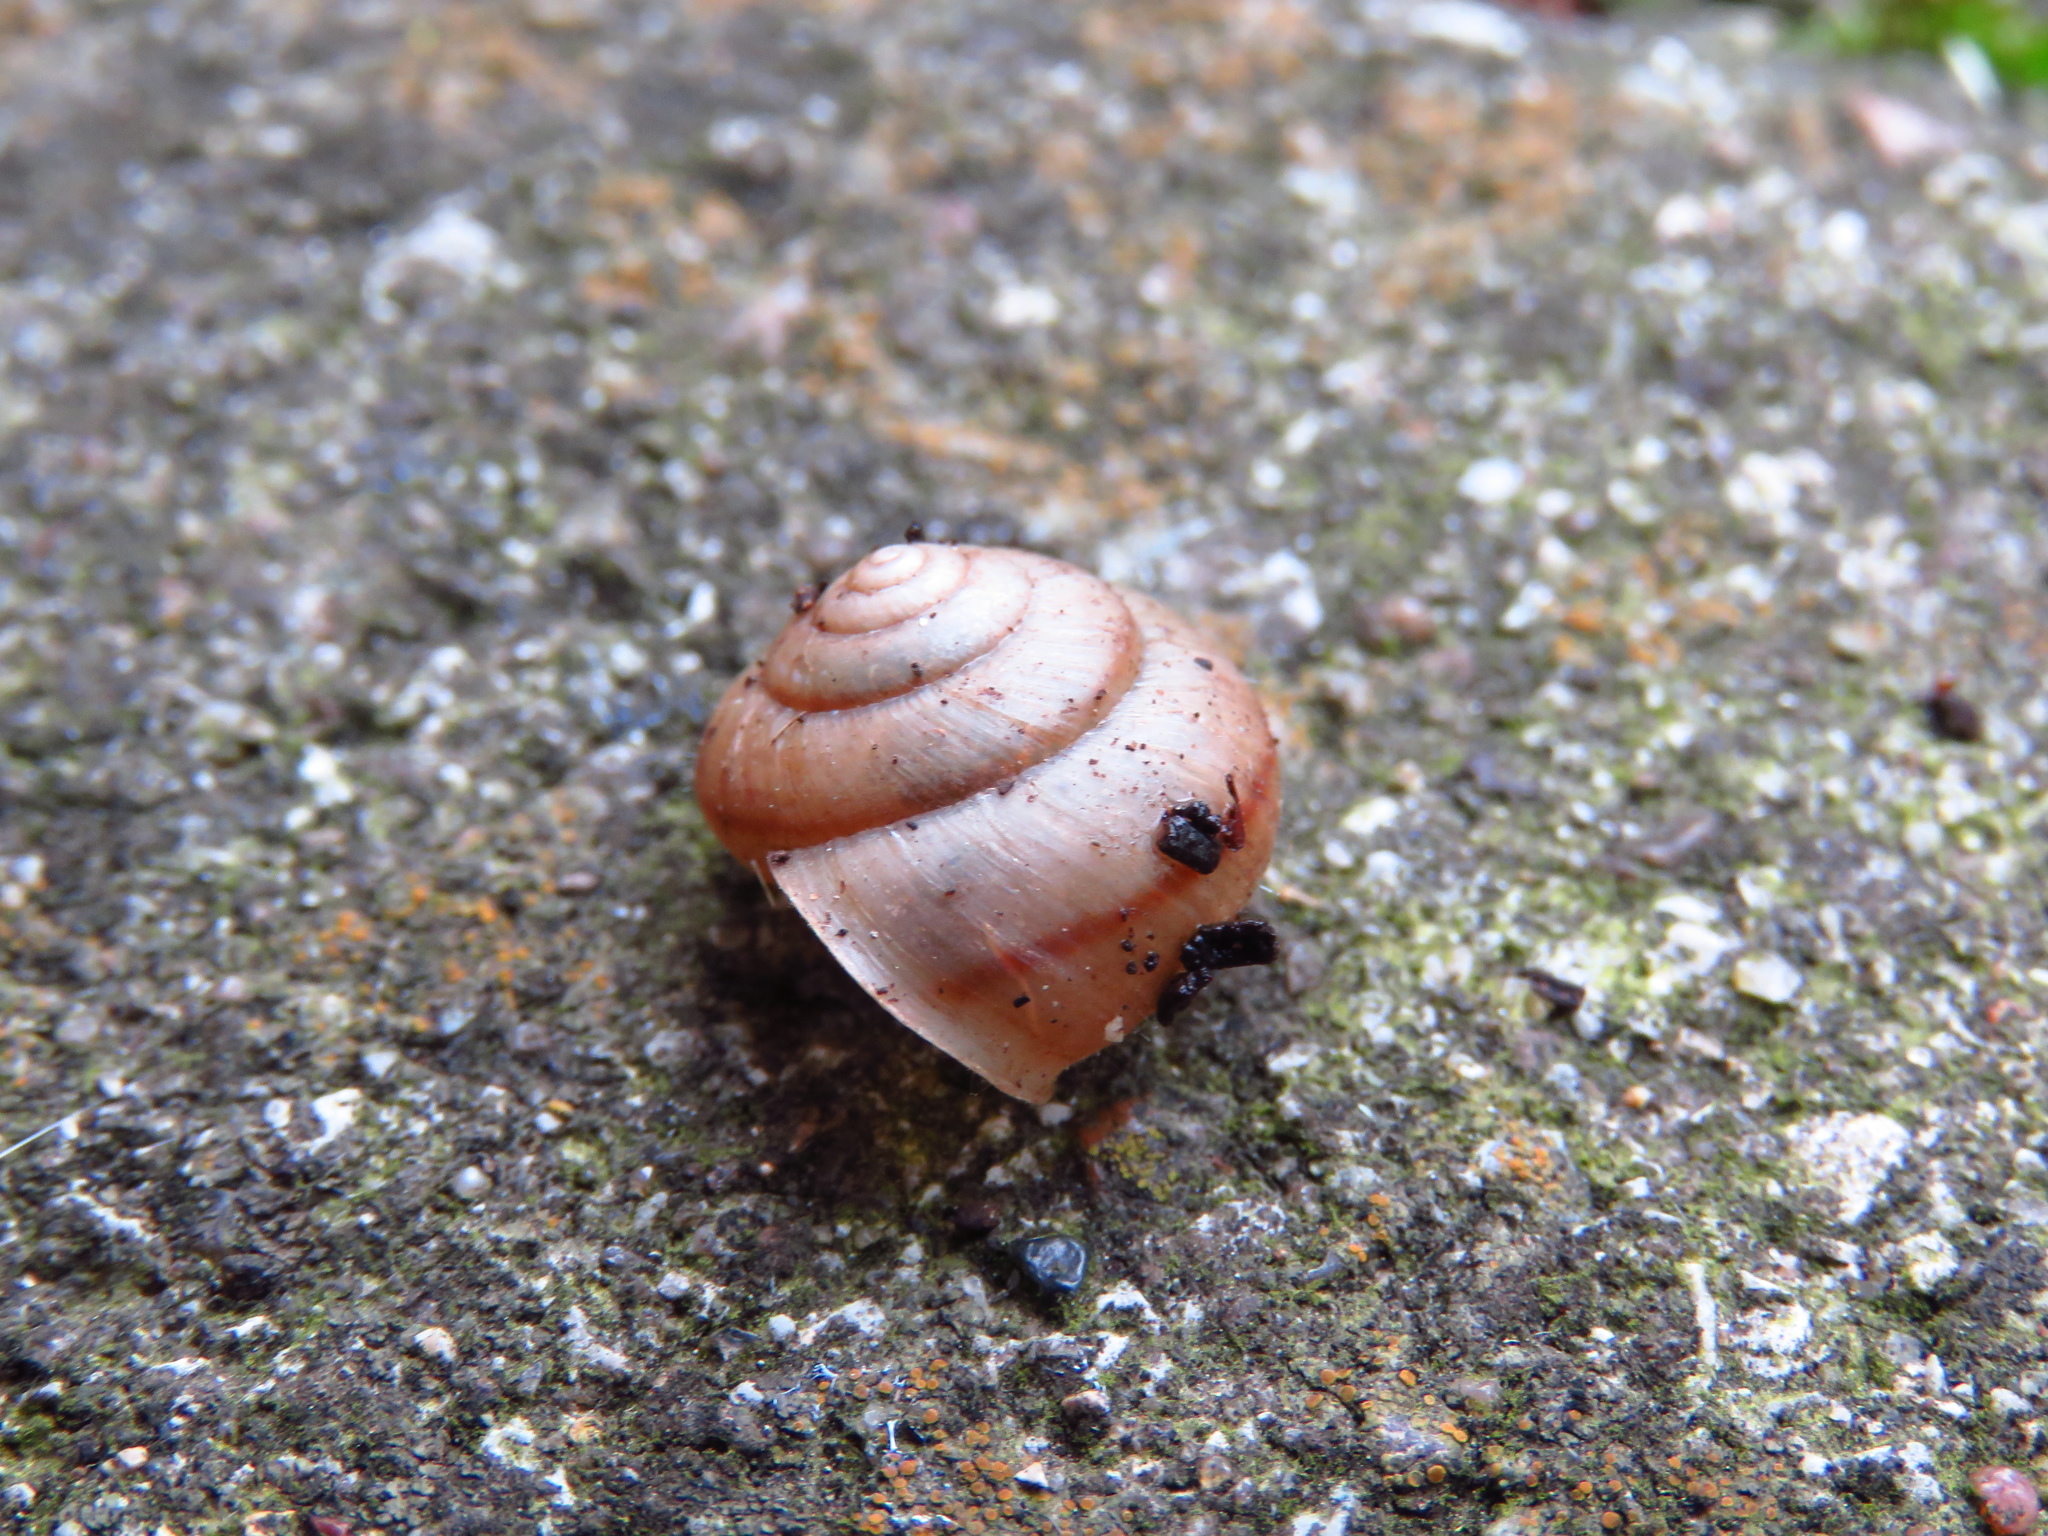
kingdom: Animalia
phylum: Mollusca
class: Gastropoda
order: Stylommatophora
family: Camaenidae
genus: Bradybaena
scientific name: Bradybaena similaris
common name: Asian trampsnail
